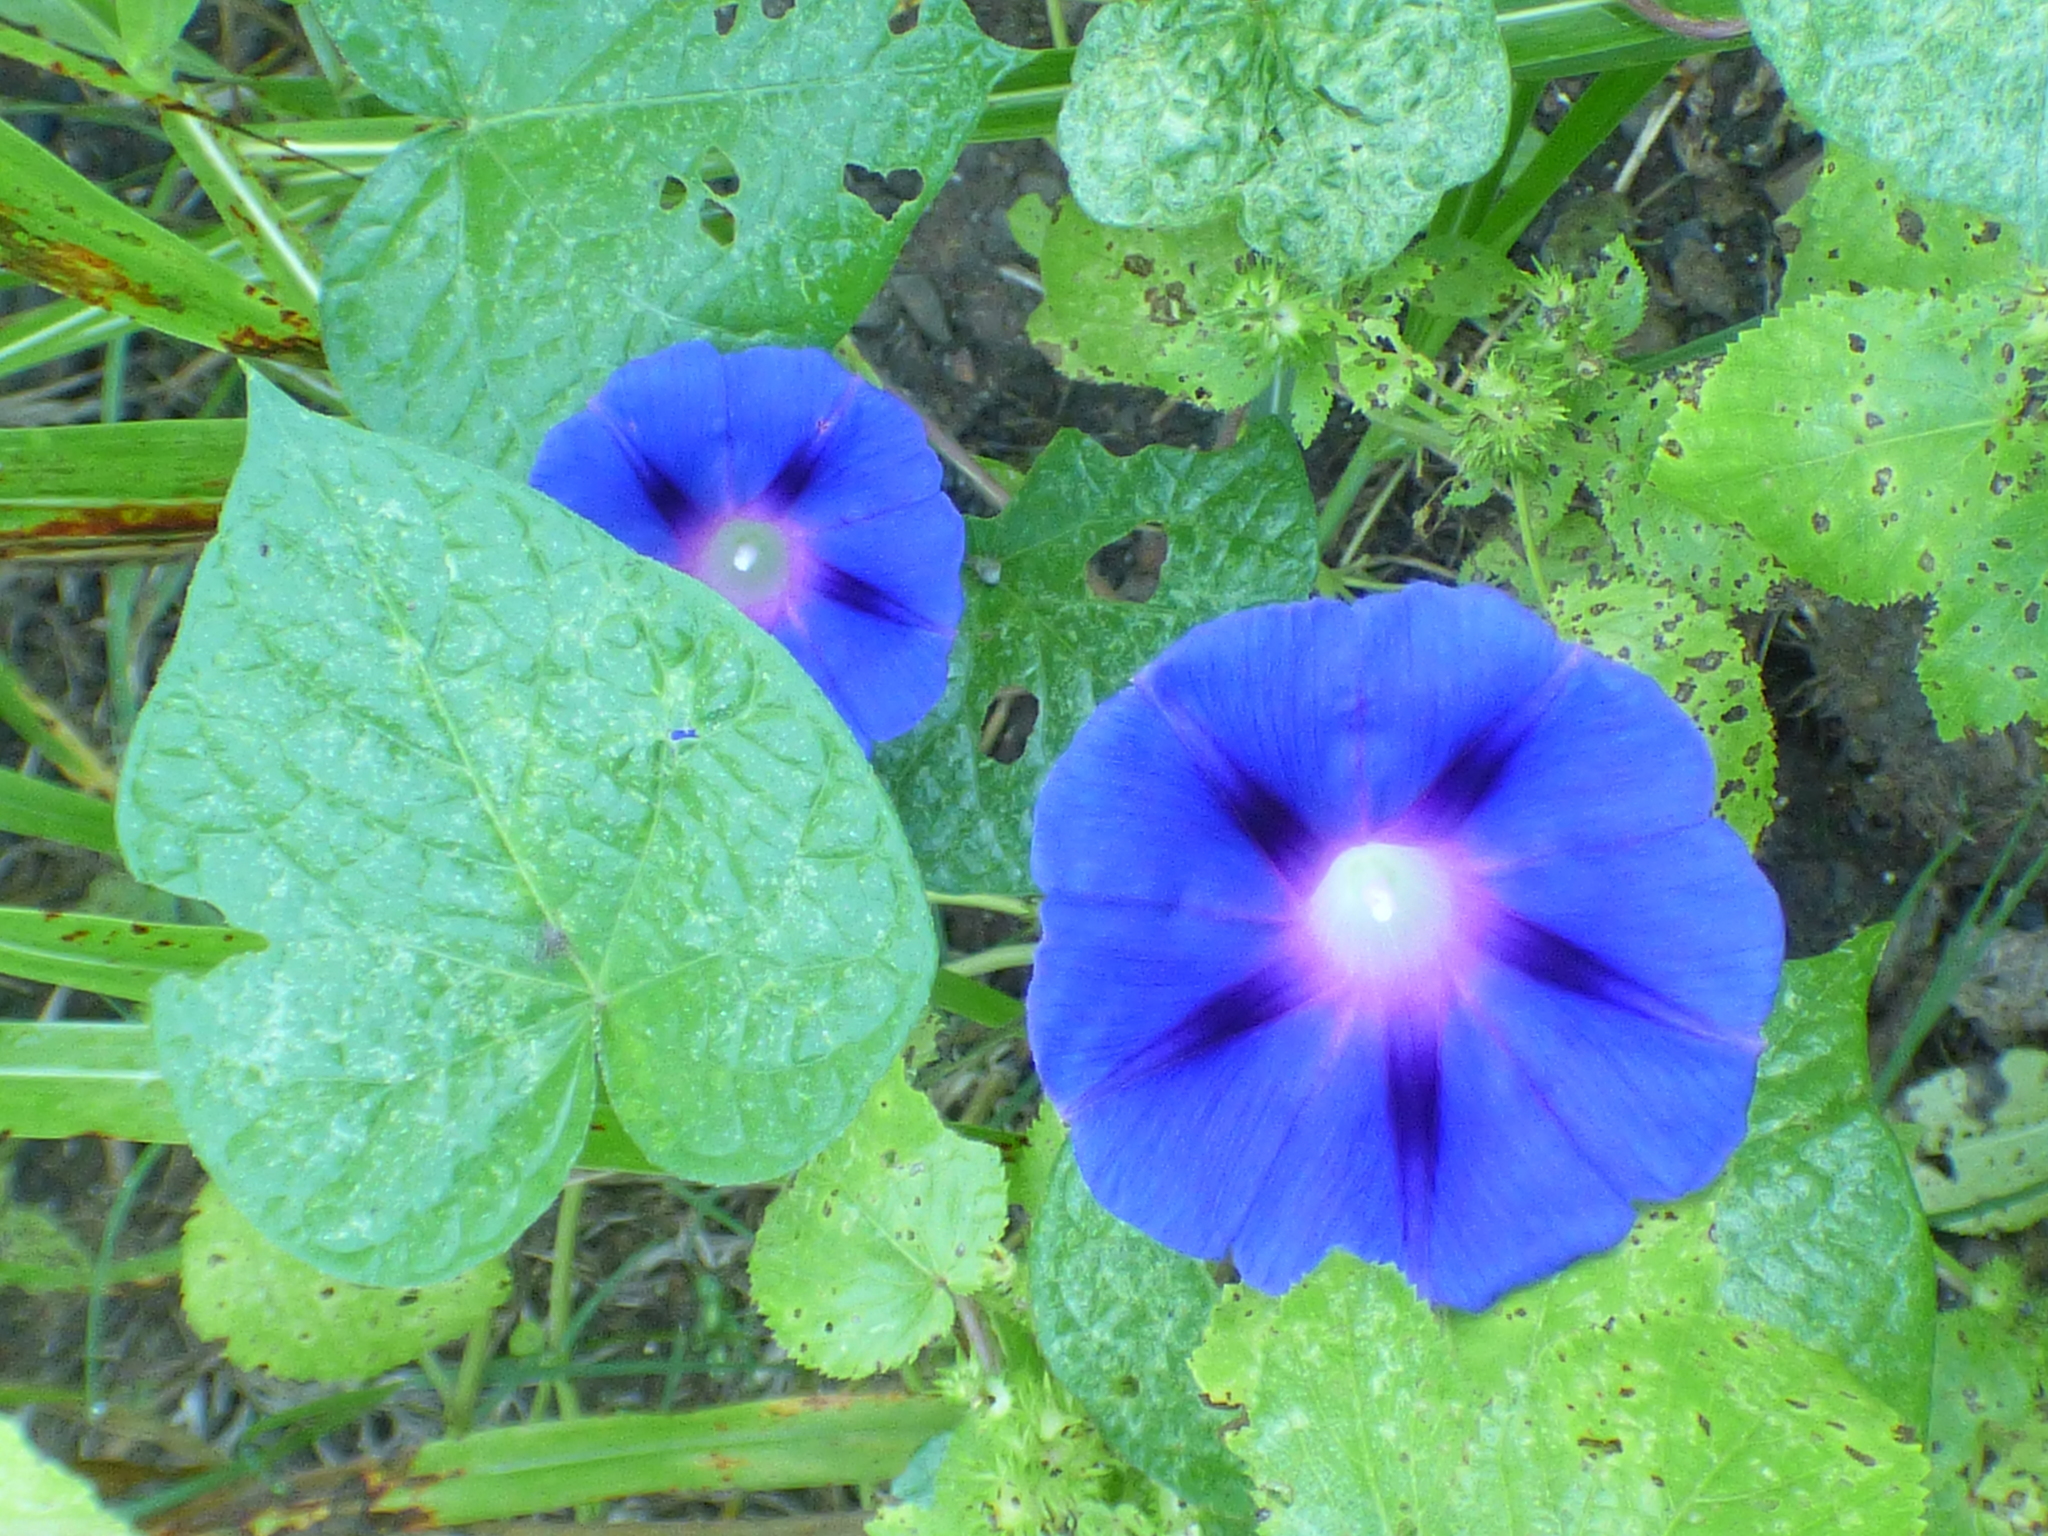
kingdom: Plantae
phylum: Tracheophyta
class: Magnoliopsida
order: Solanales
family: Convolvulaceae
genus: Ipomoea
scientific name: Ipomoea purpurea
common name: Common morning-glory
